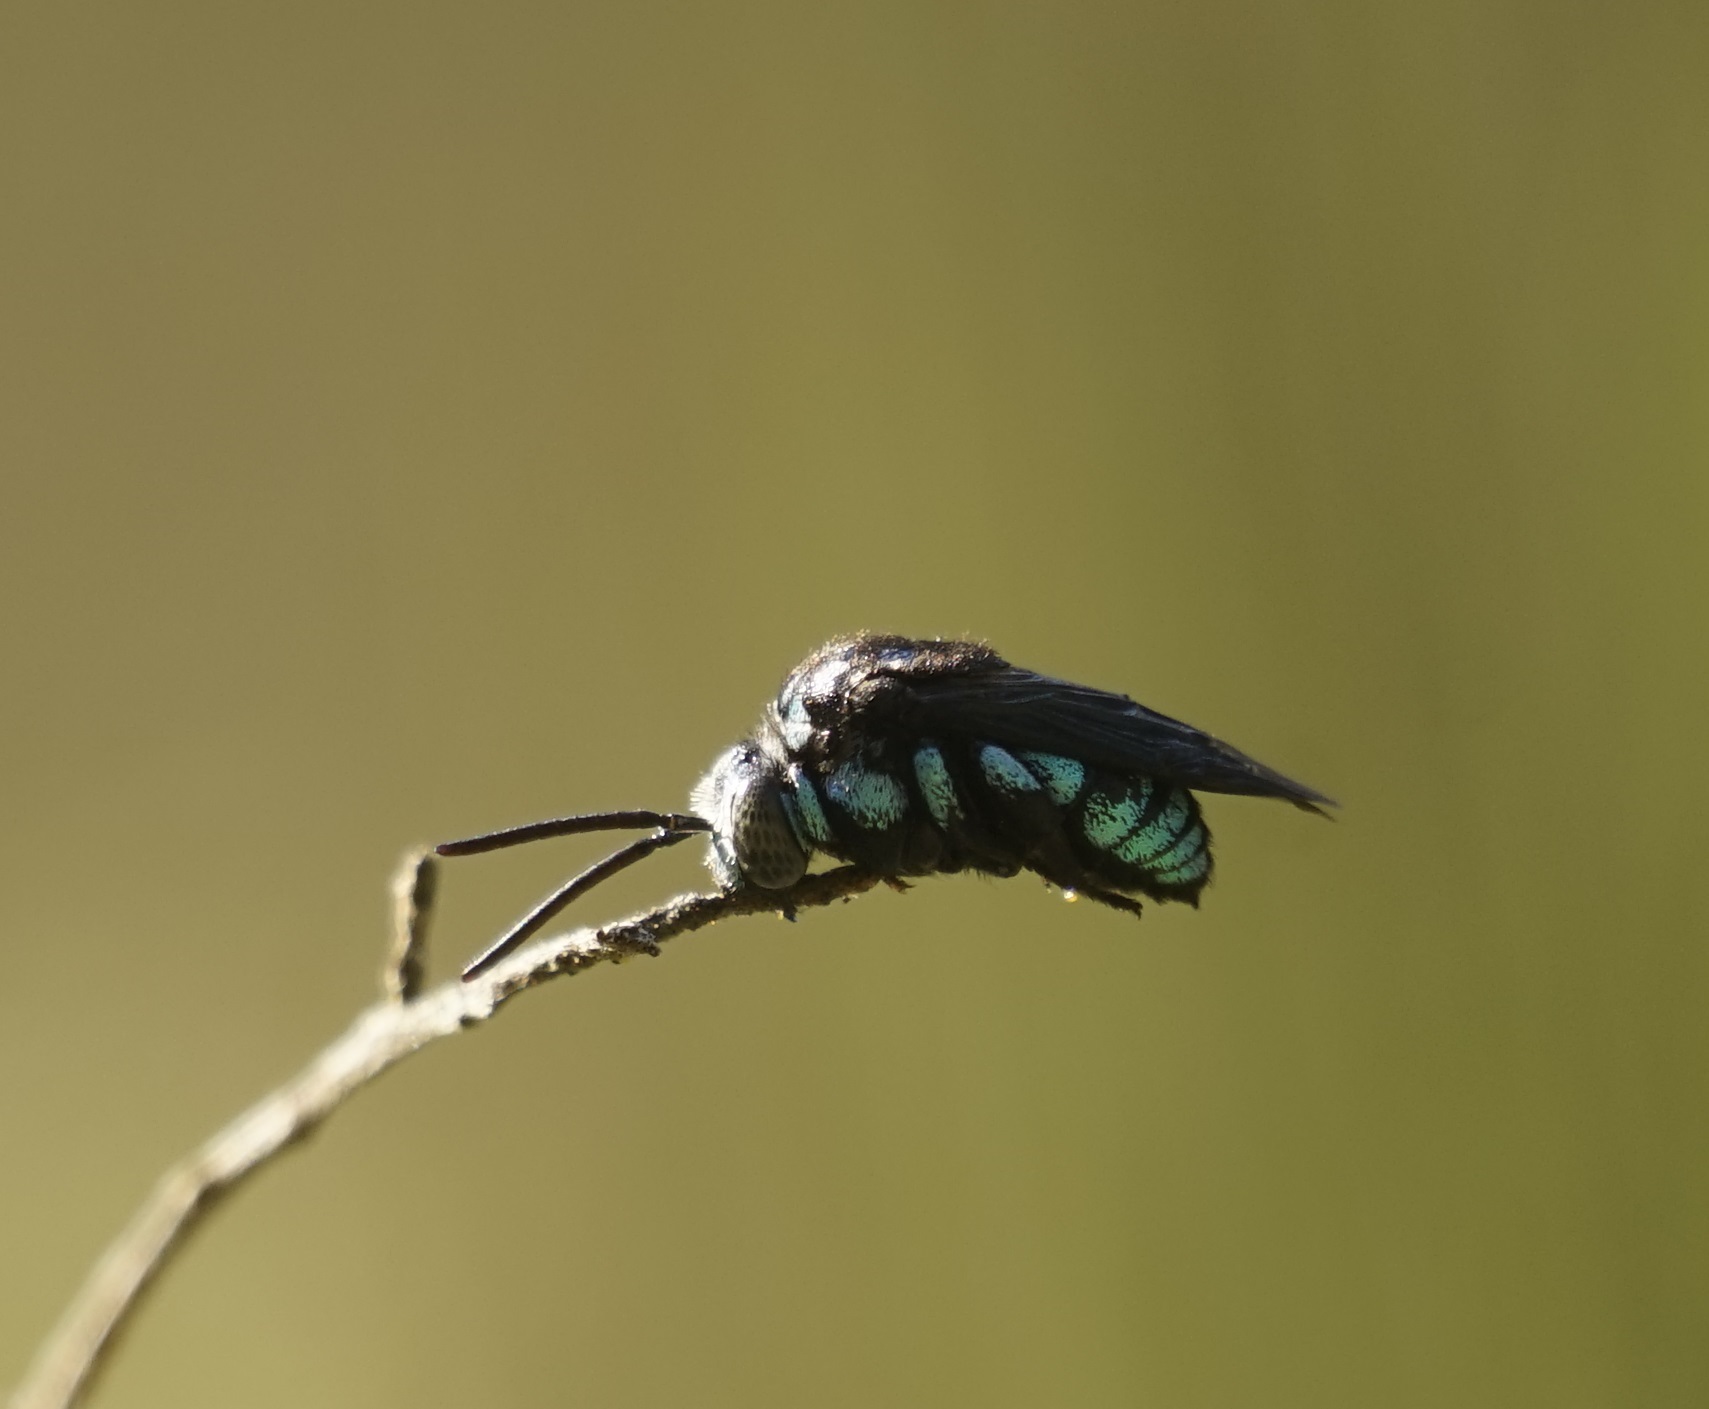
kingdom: Animalia
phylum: Arthropoda
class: Insecta
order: Hymenoptera
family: Apidae
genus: Thyreus
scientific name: Thyreus nitidulus
